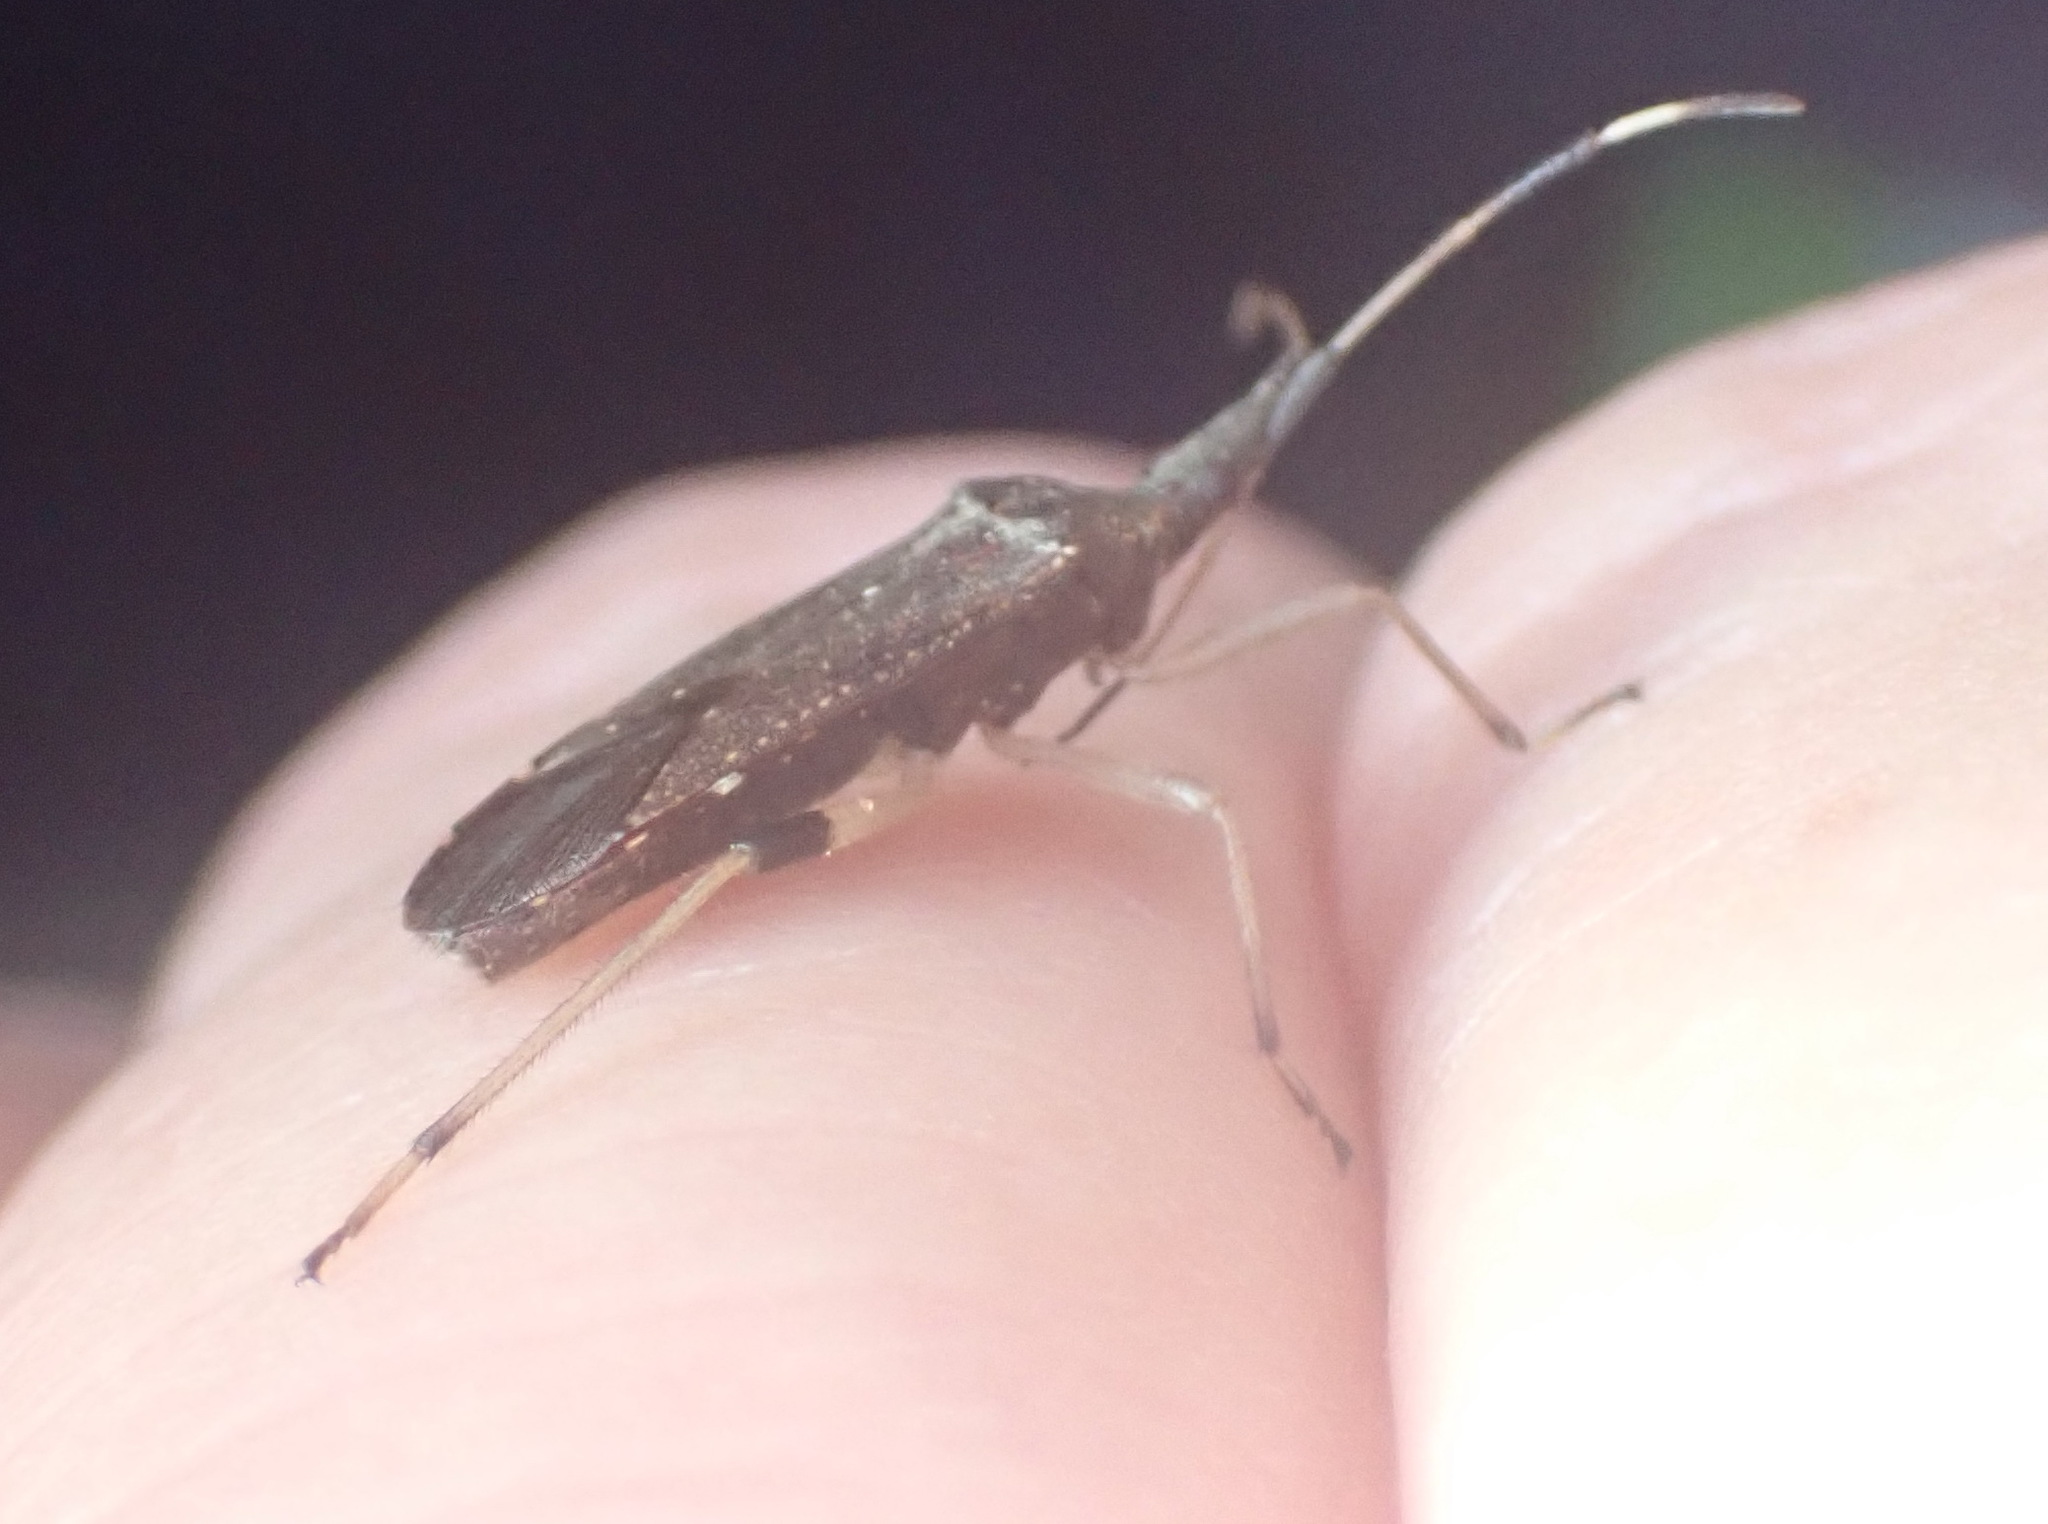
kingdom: Animalia
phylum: Arthropoda
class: Insecta
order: Hemiptera
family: Stenocephalidae
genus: Dicranocephalus
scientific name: Dicranocephalus caffer
